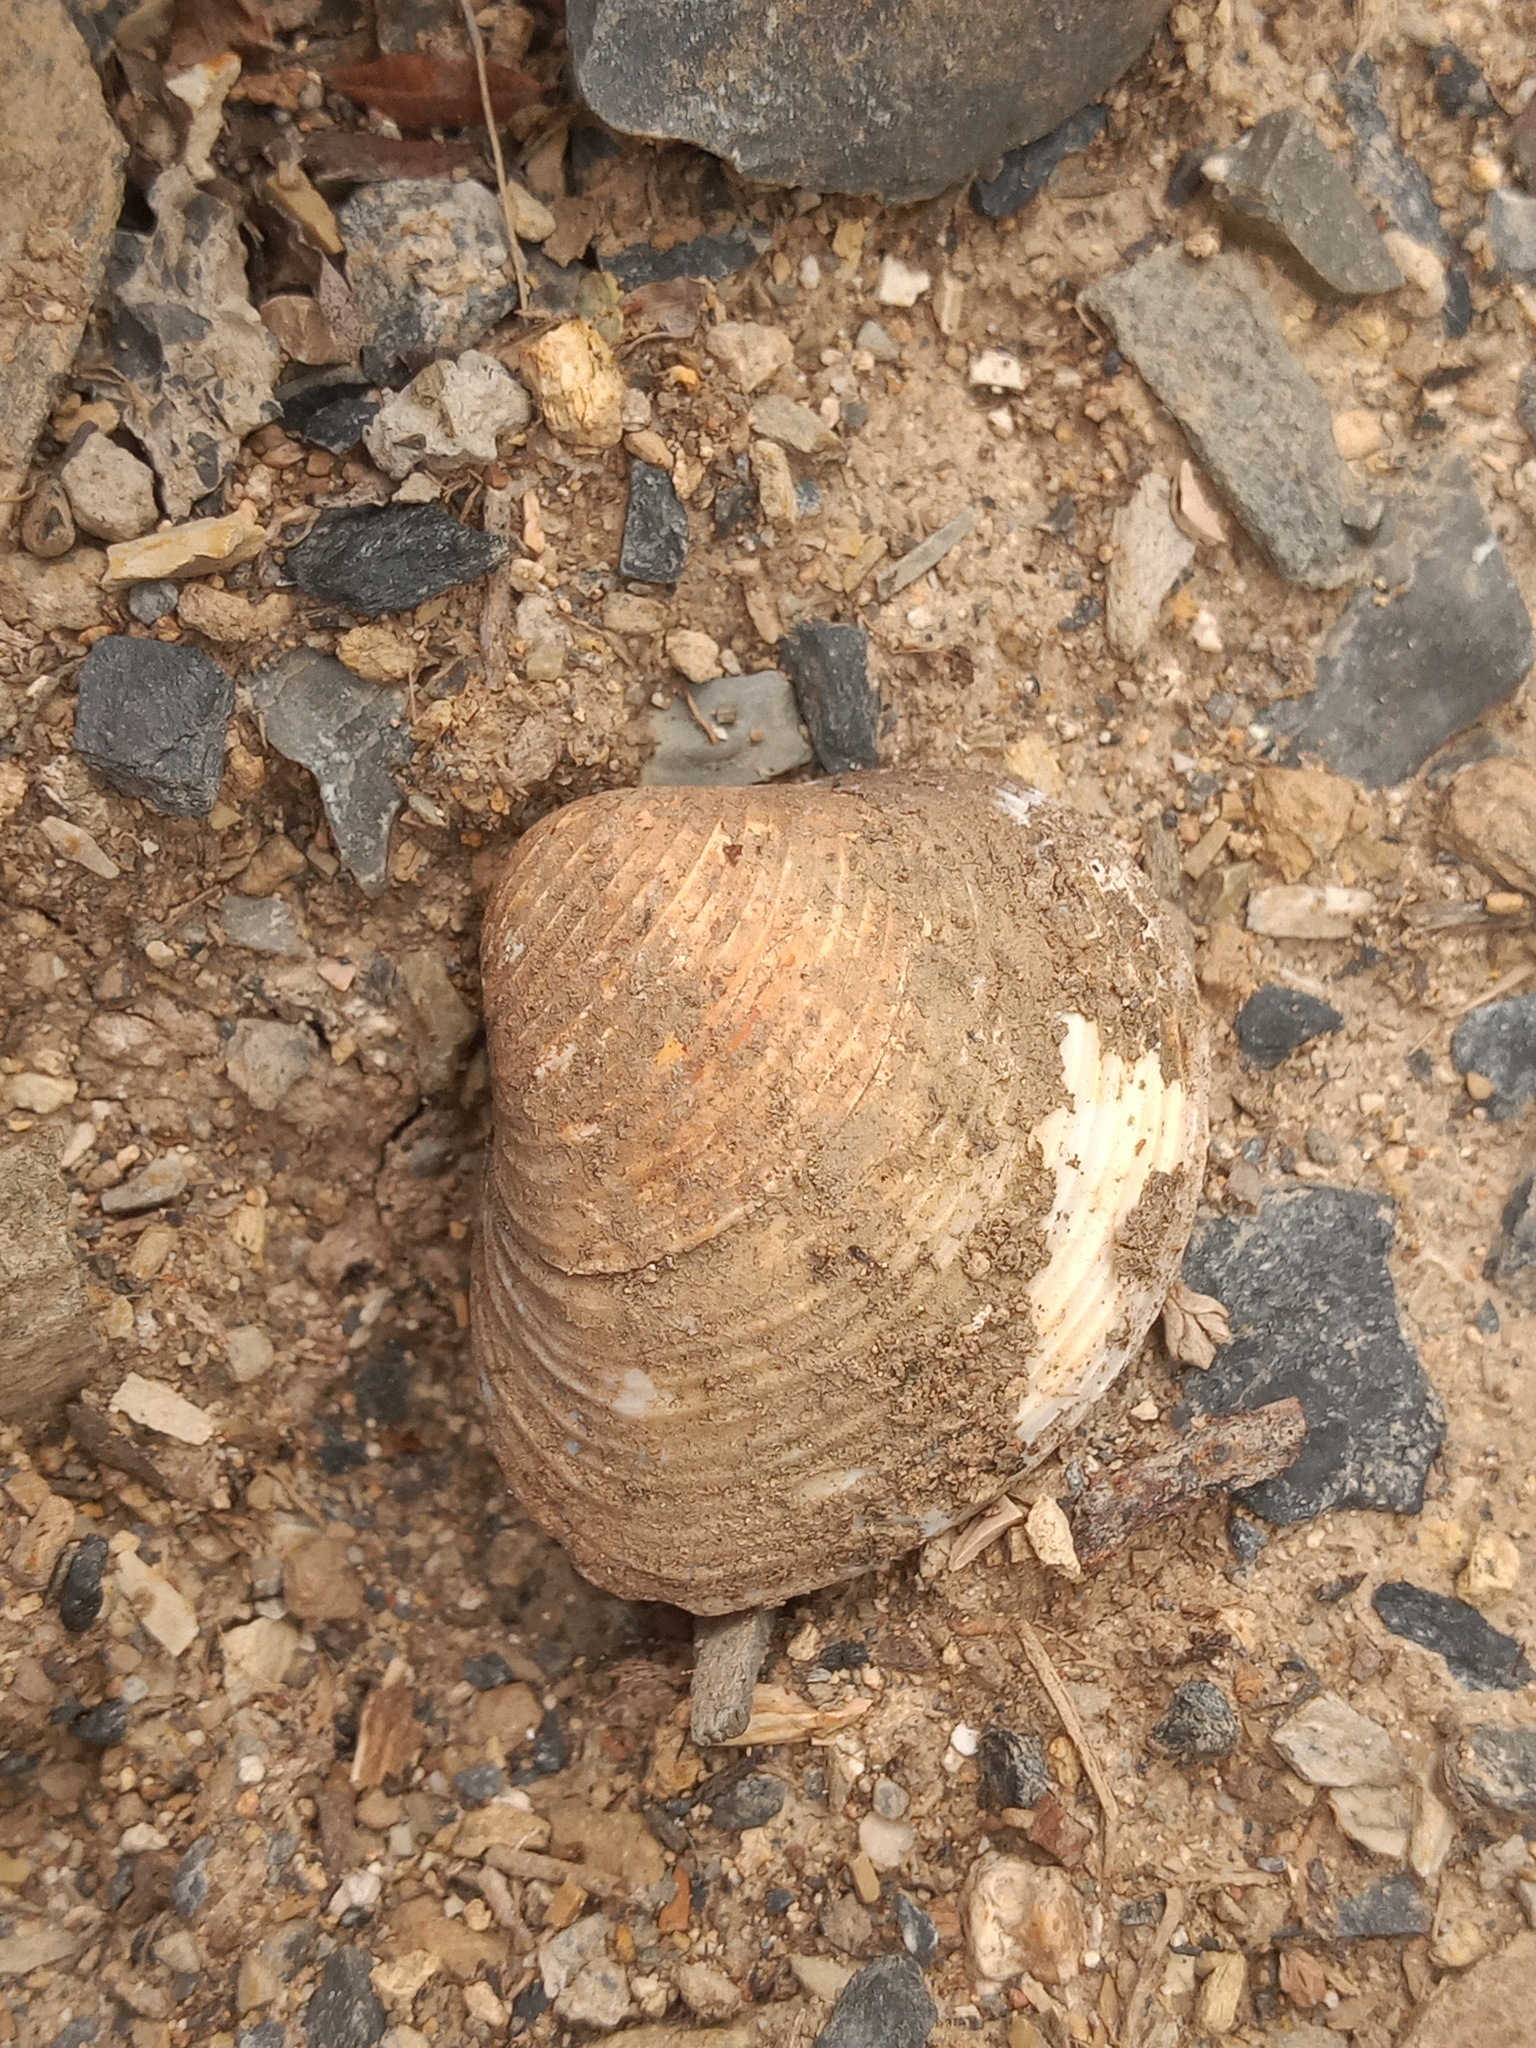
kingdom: Animalia
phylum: Mollusca
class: Bivalvia
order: Venerida
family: Cyrenidae
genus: Corbicula
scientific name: Corbicula fluminea
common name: Asian clam
